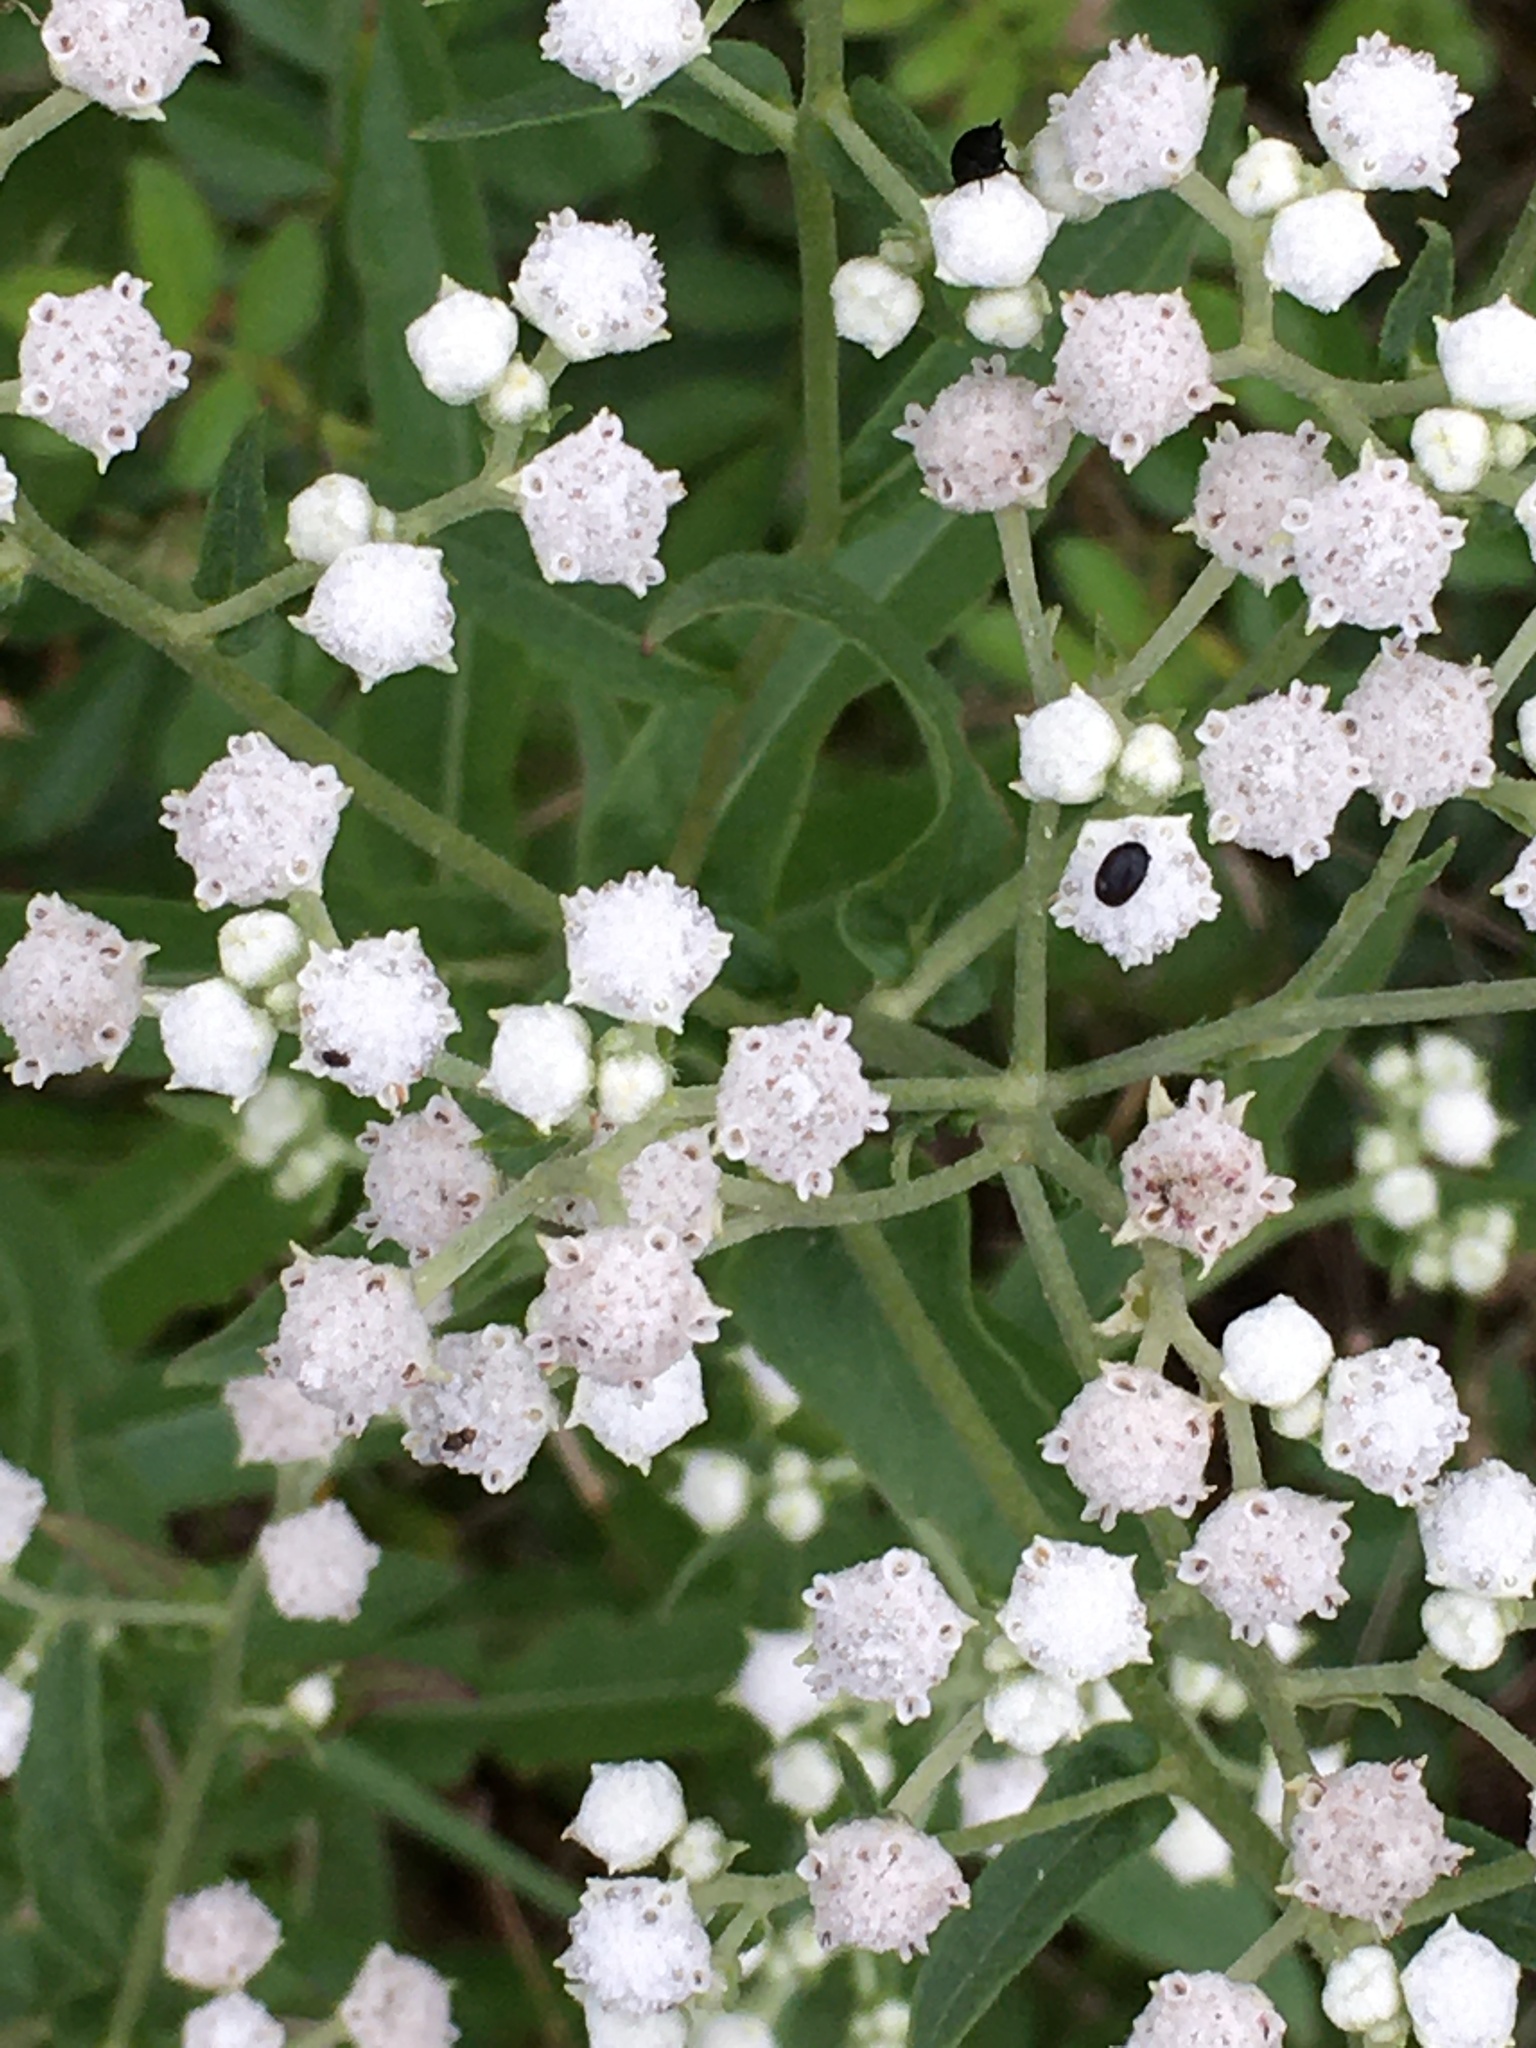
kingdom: Plantae
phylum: Tracheophyta
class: Magnoliopsida
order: Asterales
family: Asteraceae
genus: Parthenium
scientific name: Parthenium integrifolium
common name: American feverfew
